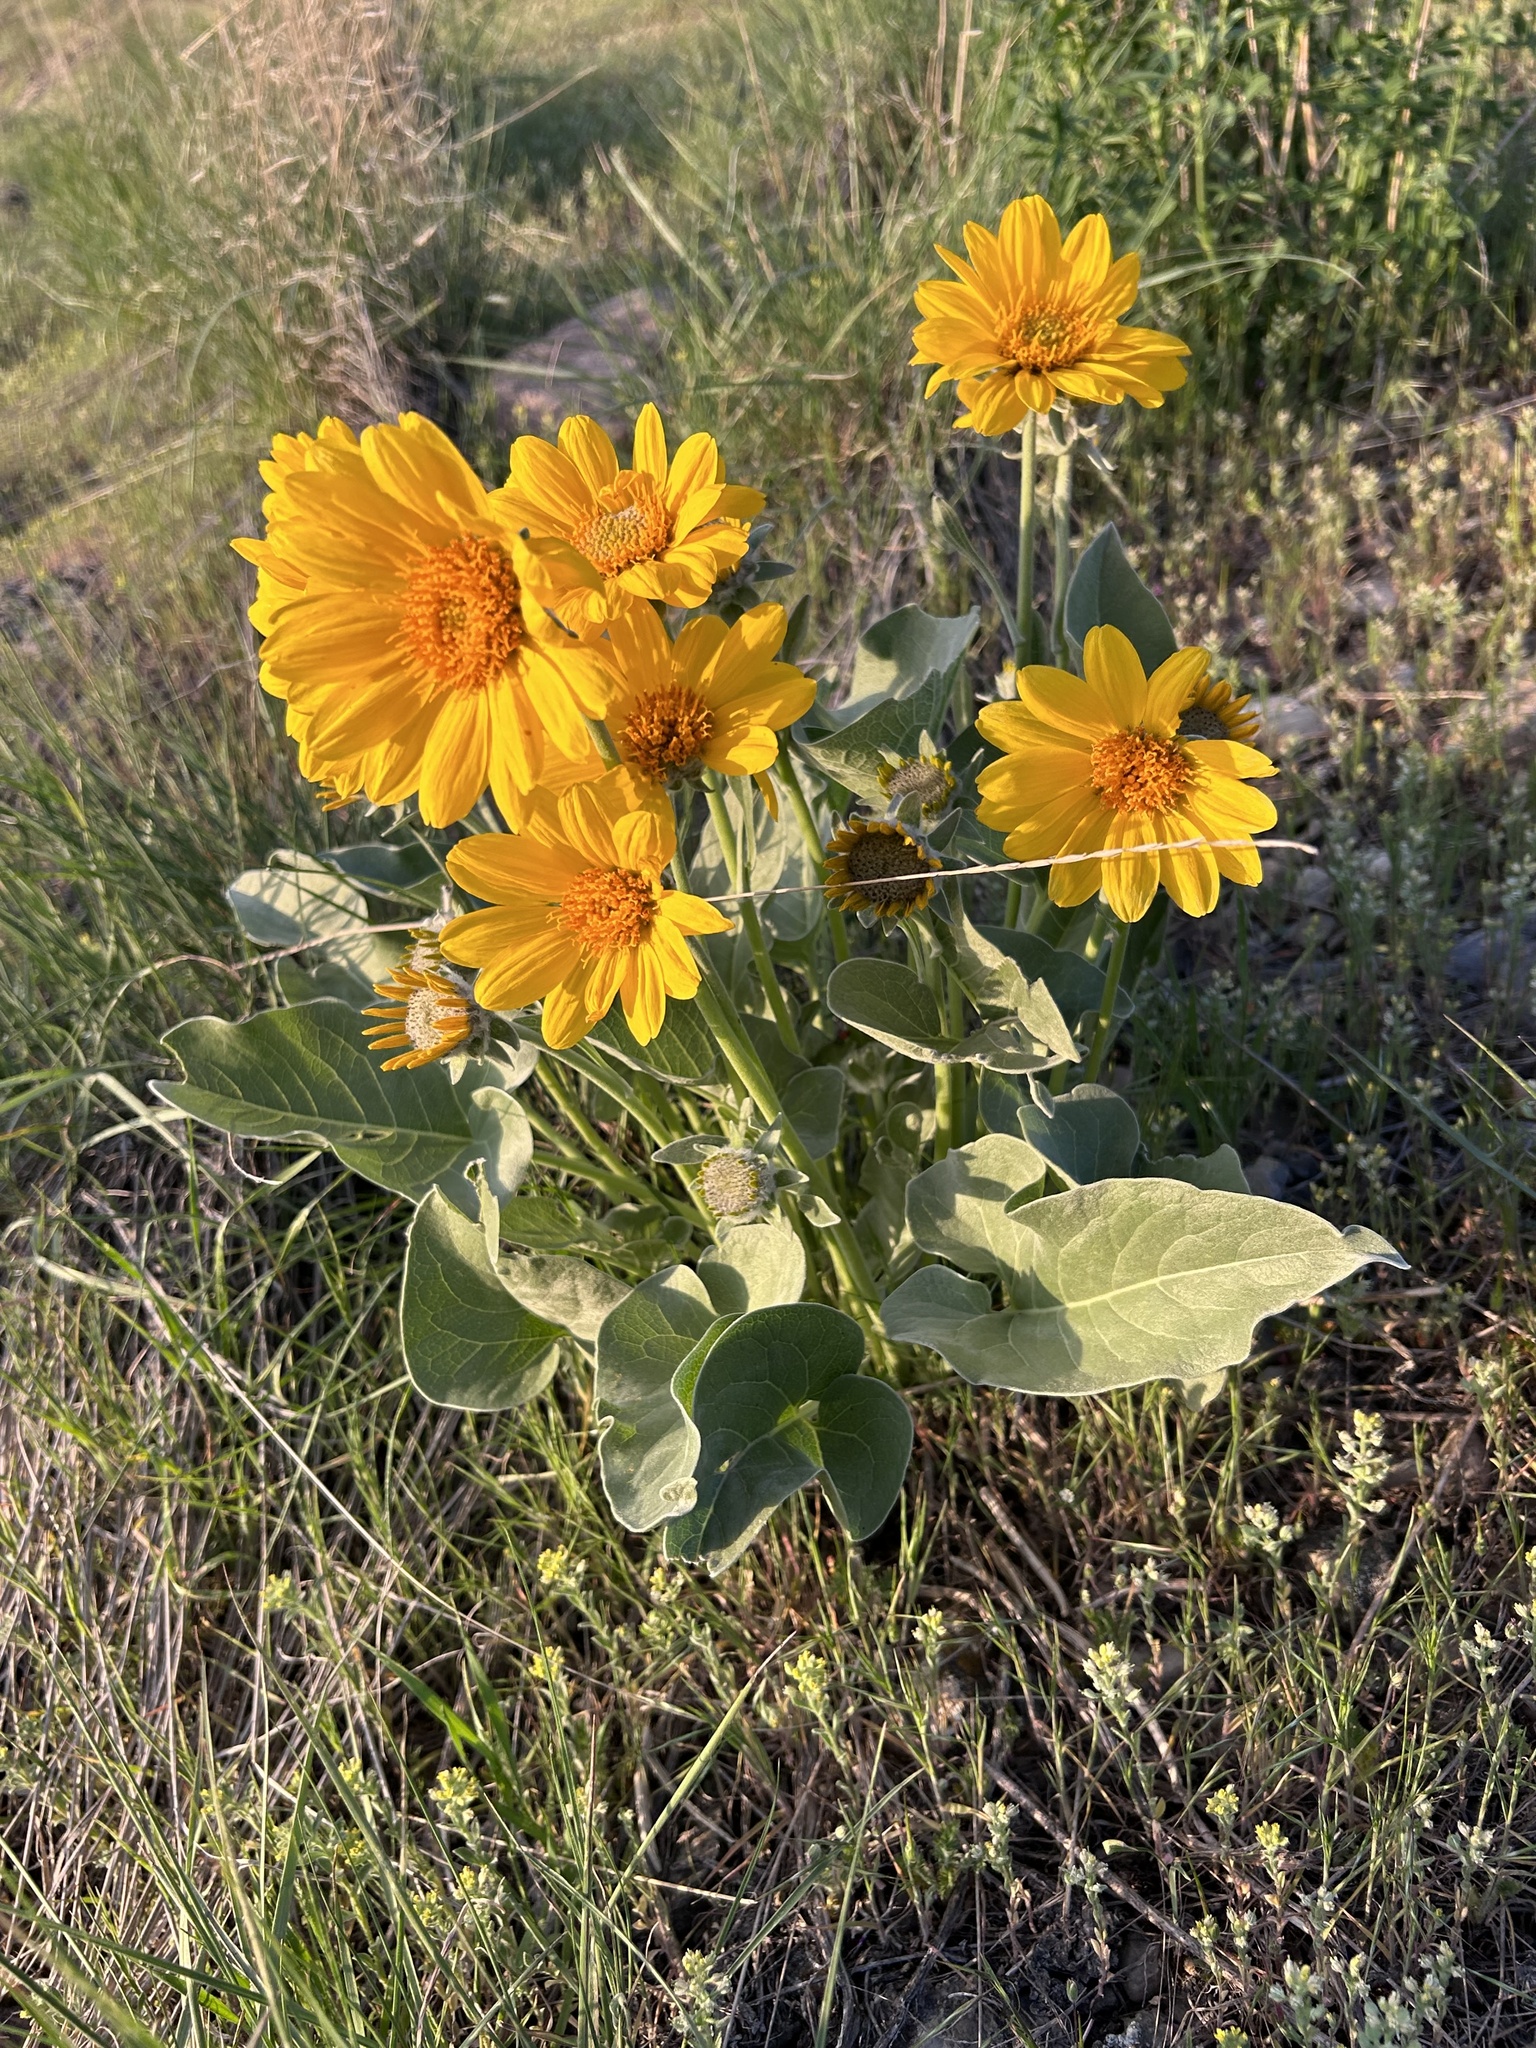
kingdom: Plantae
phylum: Tracheophyta
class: Magnoliopsida
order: Asterales
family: Asteraceae
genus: Wyethia
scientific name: Wyethia sagittata
